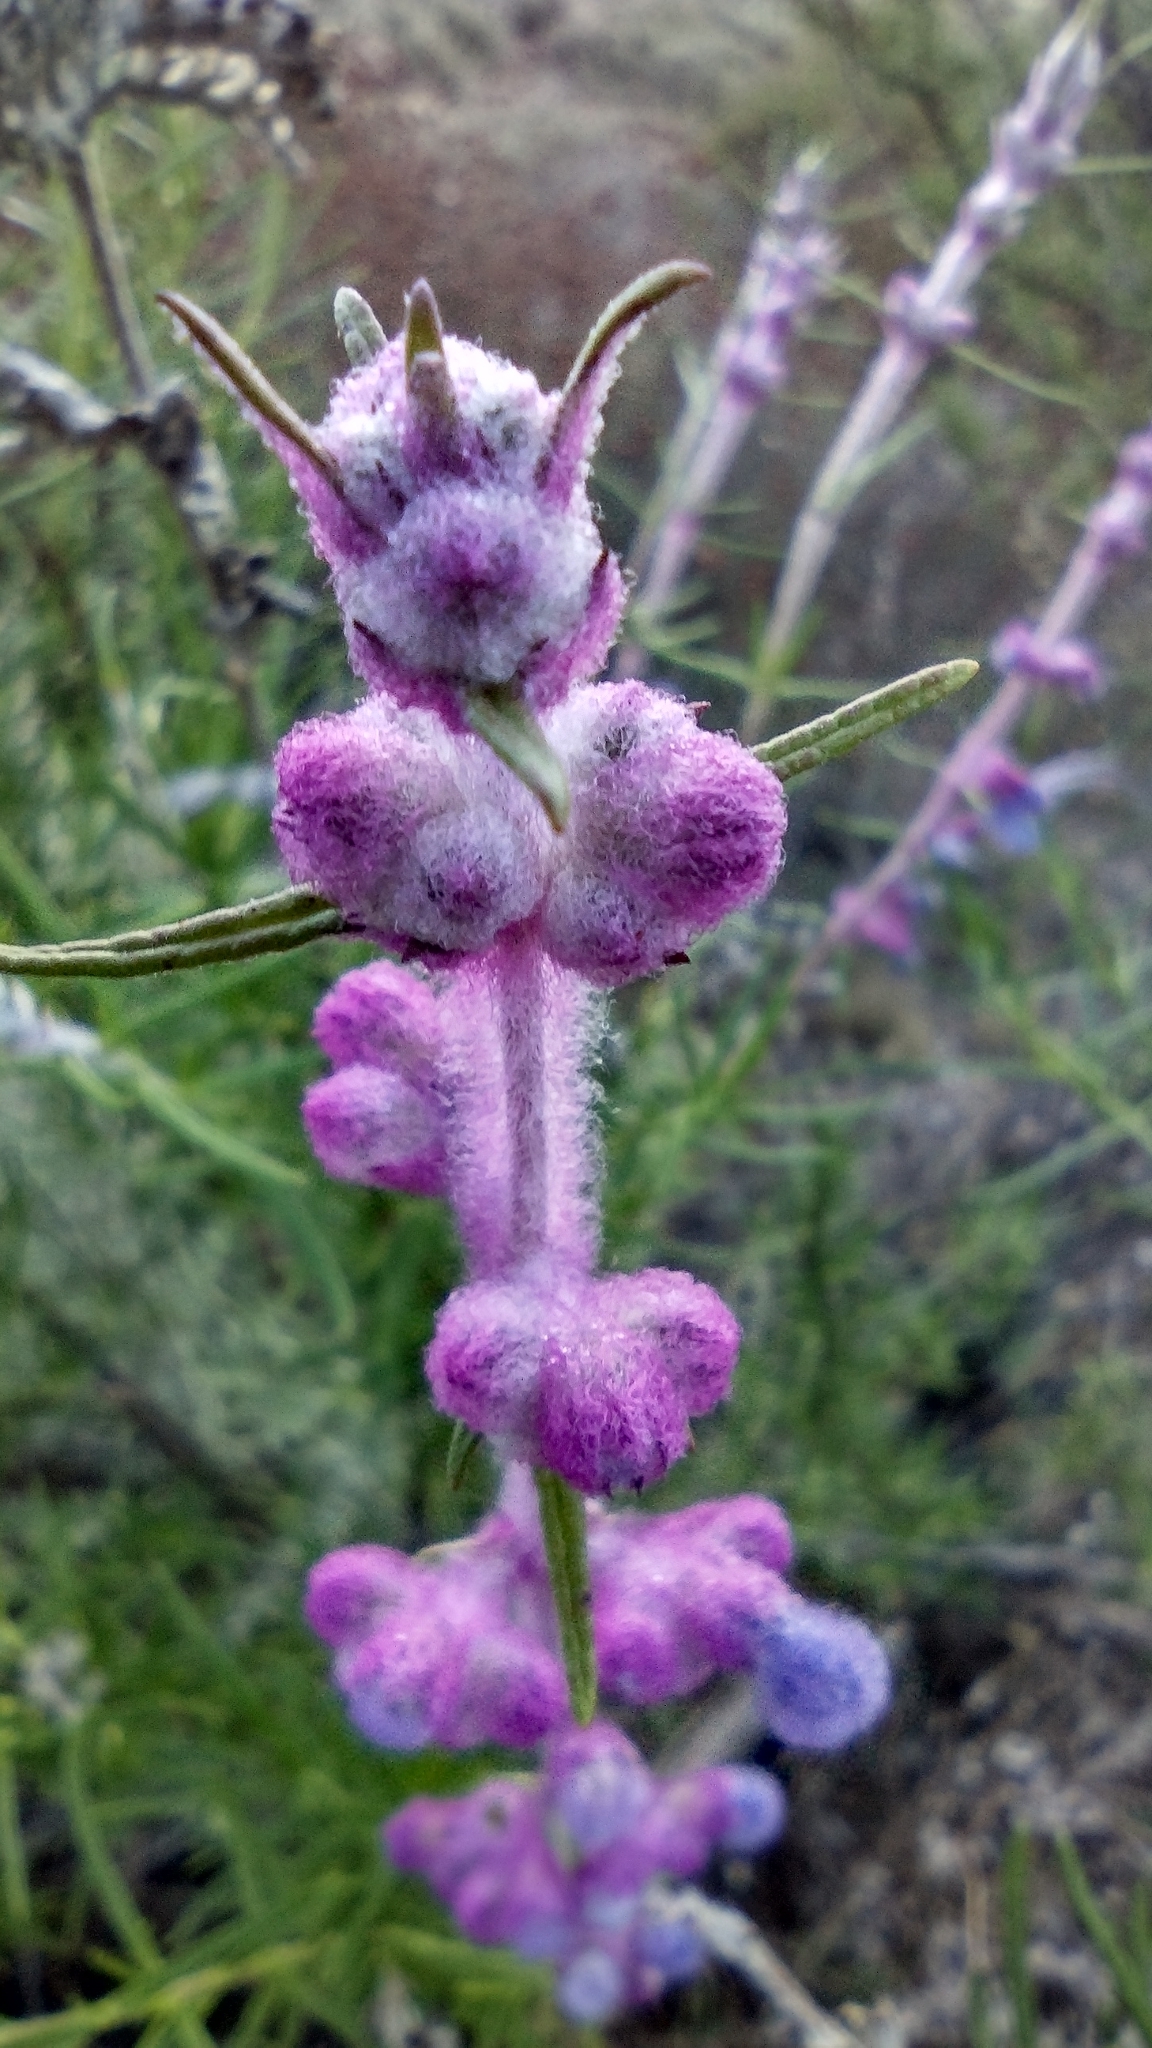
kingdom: Plantae
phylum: Tracheophyta
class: Magnoliopsida
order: Lamiales
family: Lamiaceae
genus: Trichostema
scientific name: Trichostema lanatum
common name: Woolly bluecurls
